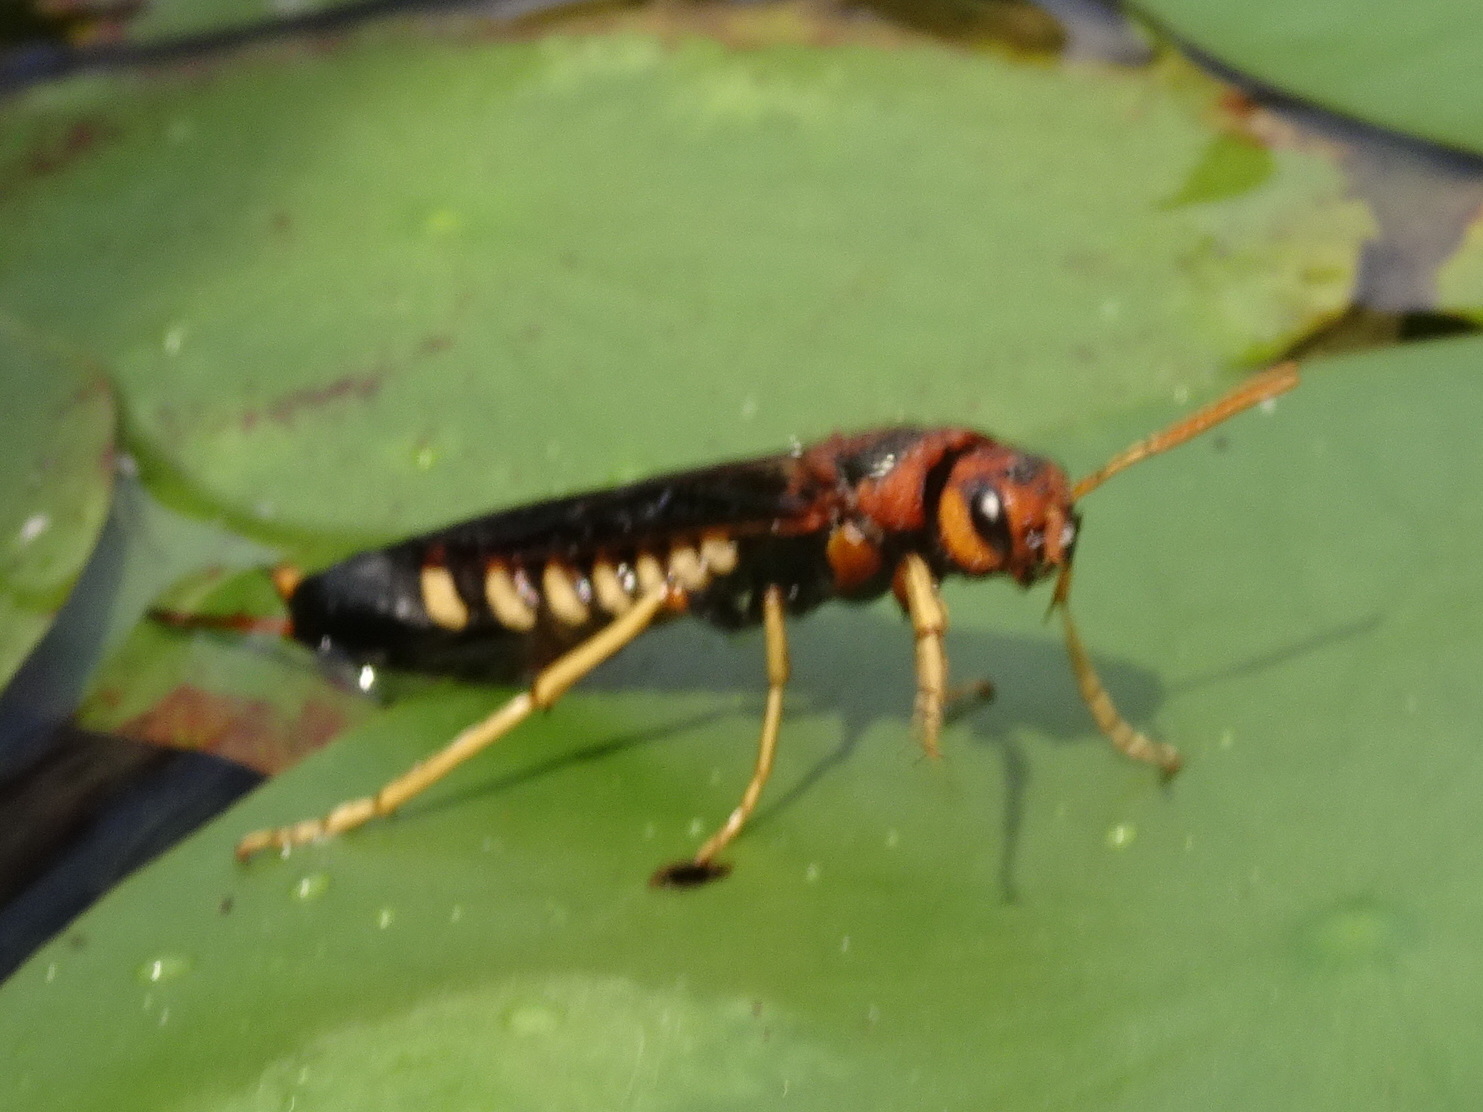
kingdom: Animalia
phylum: Arthropoda
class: Insecta
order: Hymenoptera
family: Siricidae
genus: Tremex
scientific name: Tremex columba
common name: Wasp
